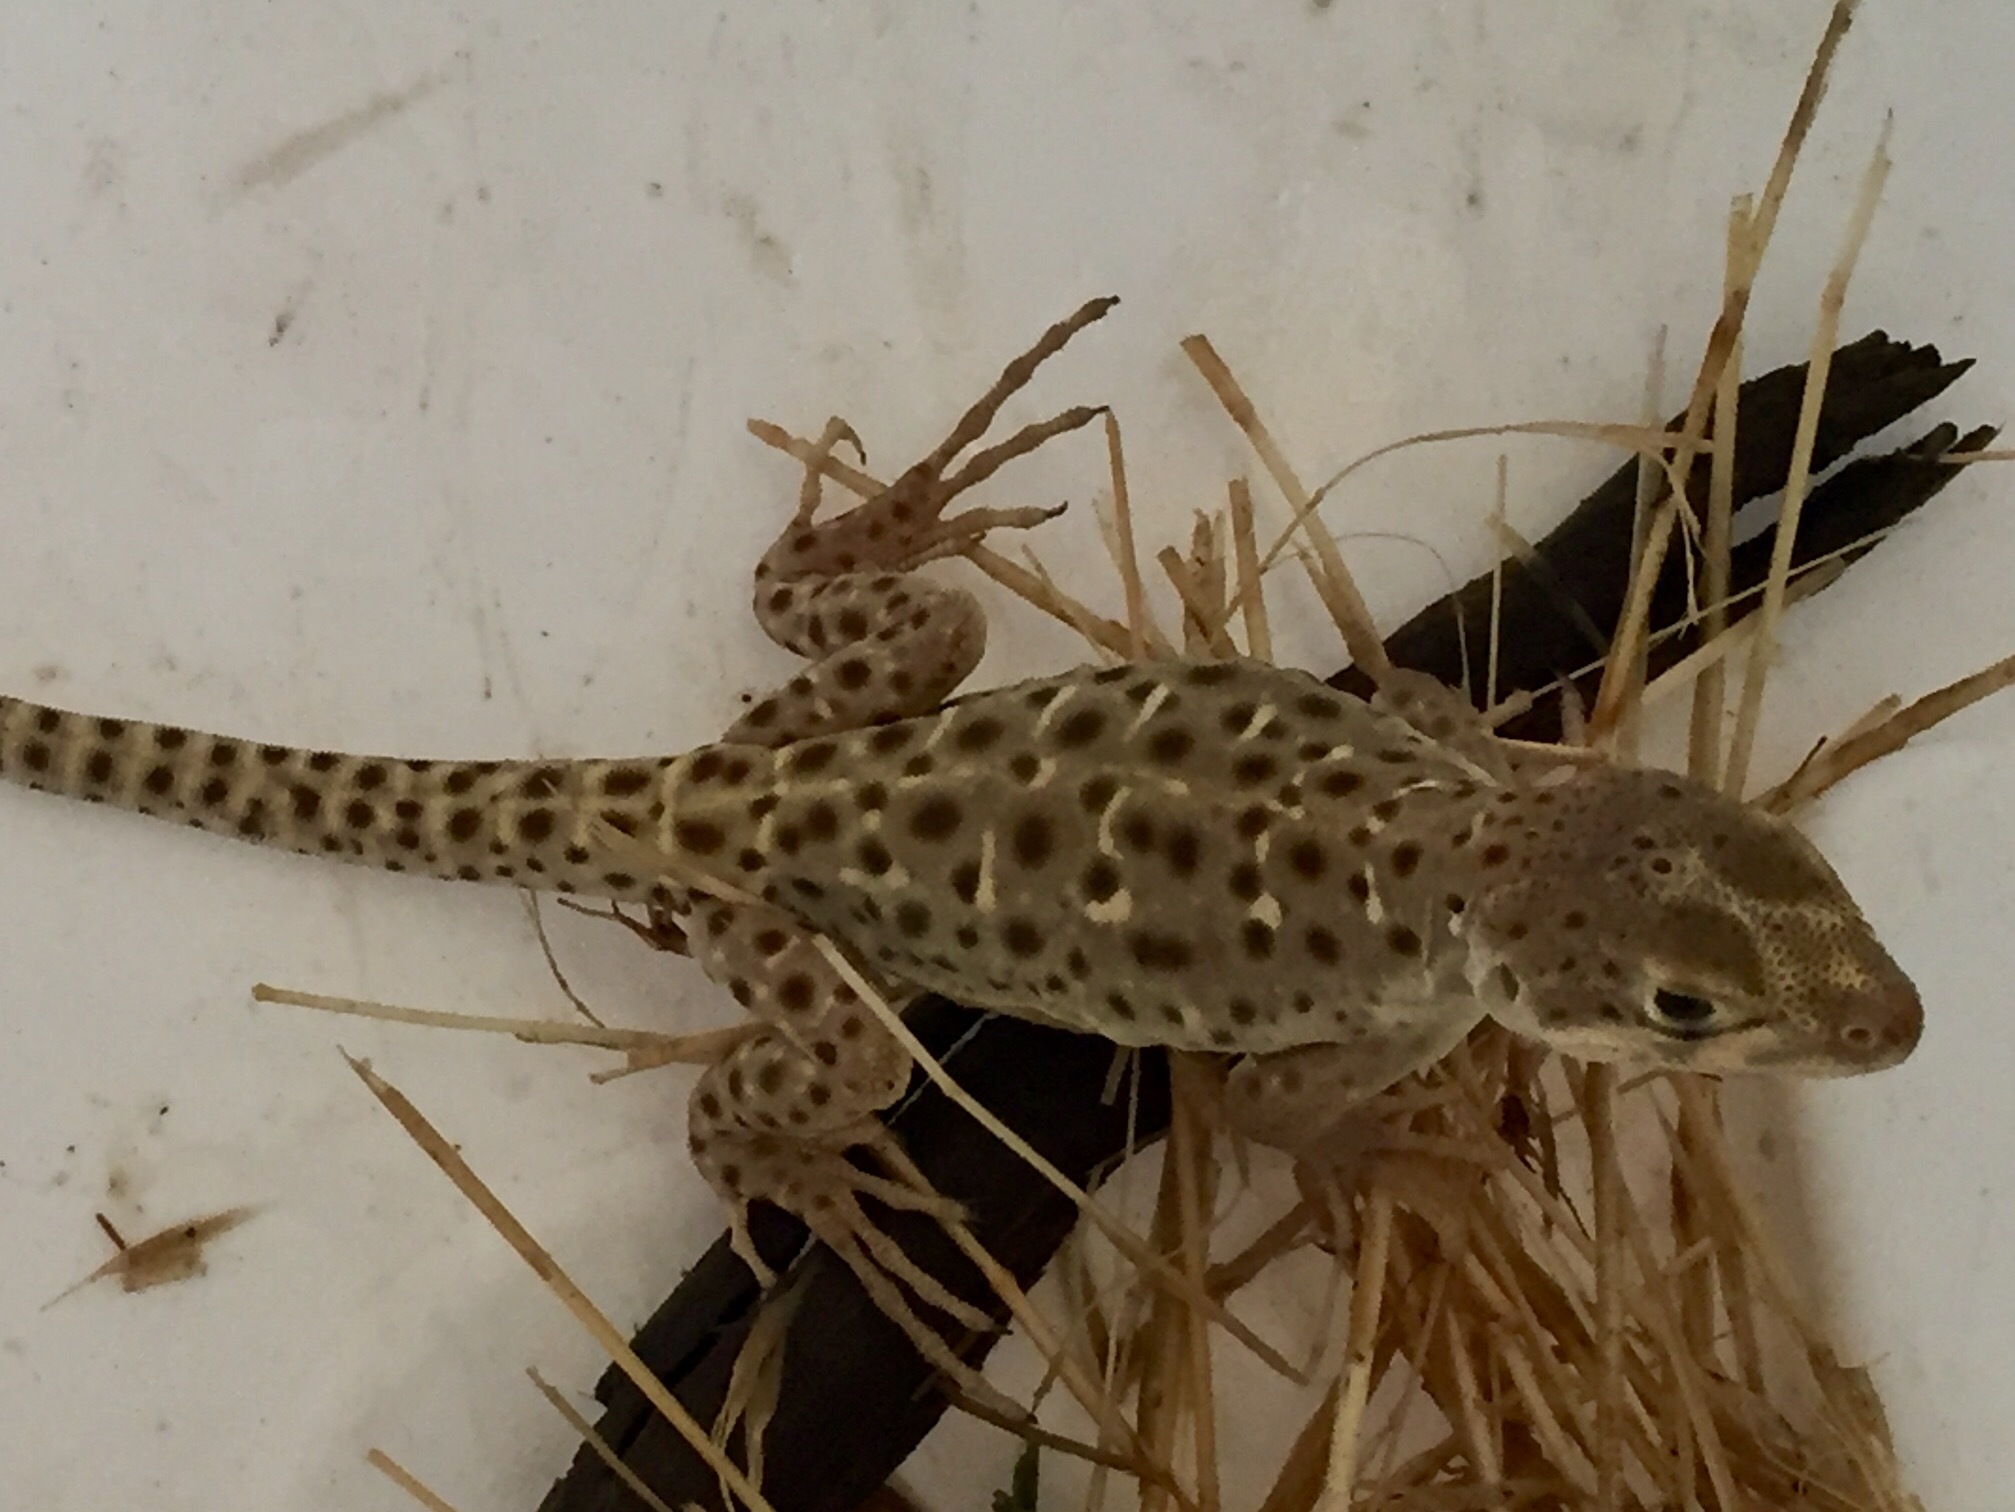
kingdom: Animalia
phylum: Chordata
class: Squamata
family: Crotaphytidae
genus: Gambelia
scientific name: Gambelia wislizenii
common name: Longnose leopard lizard
